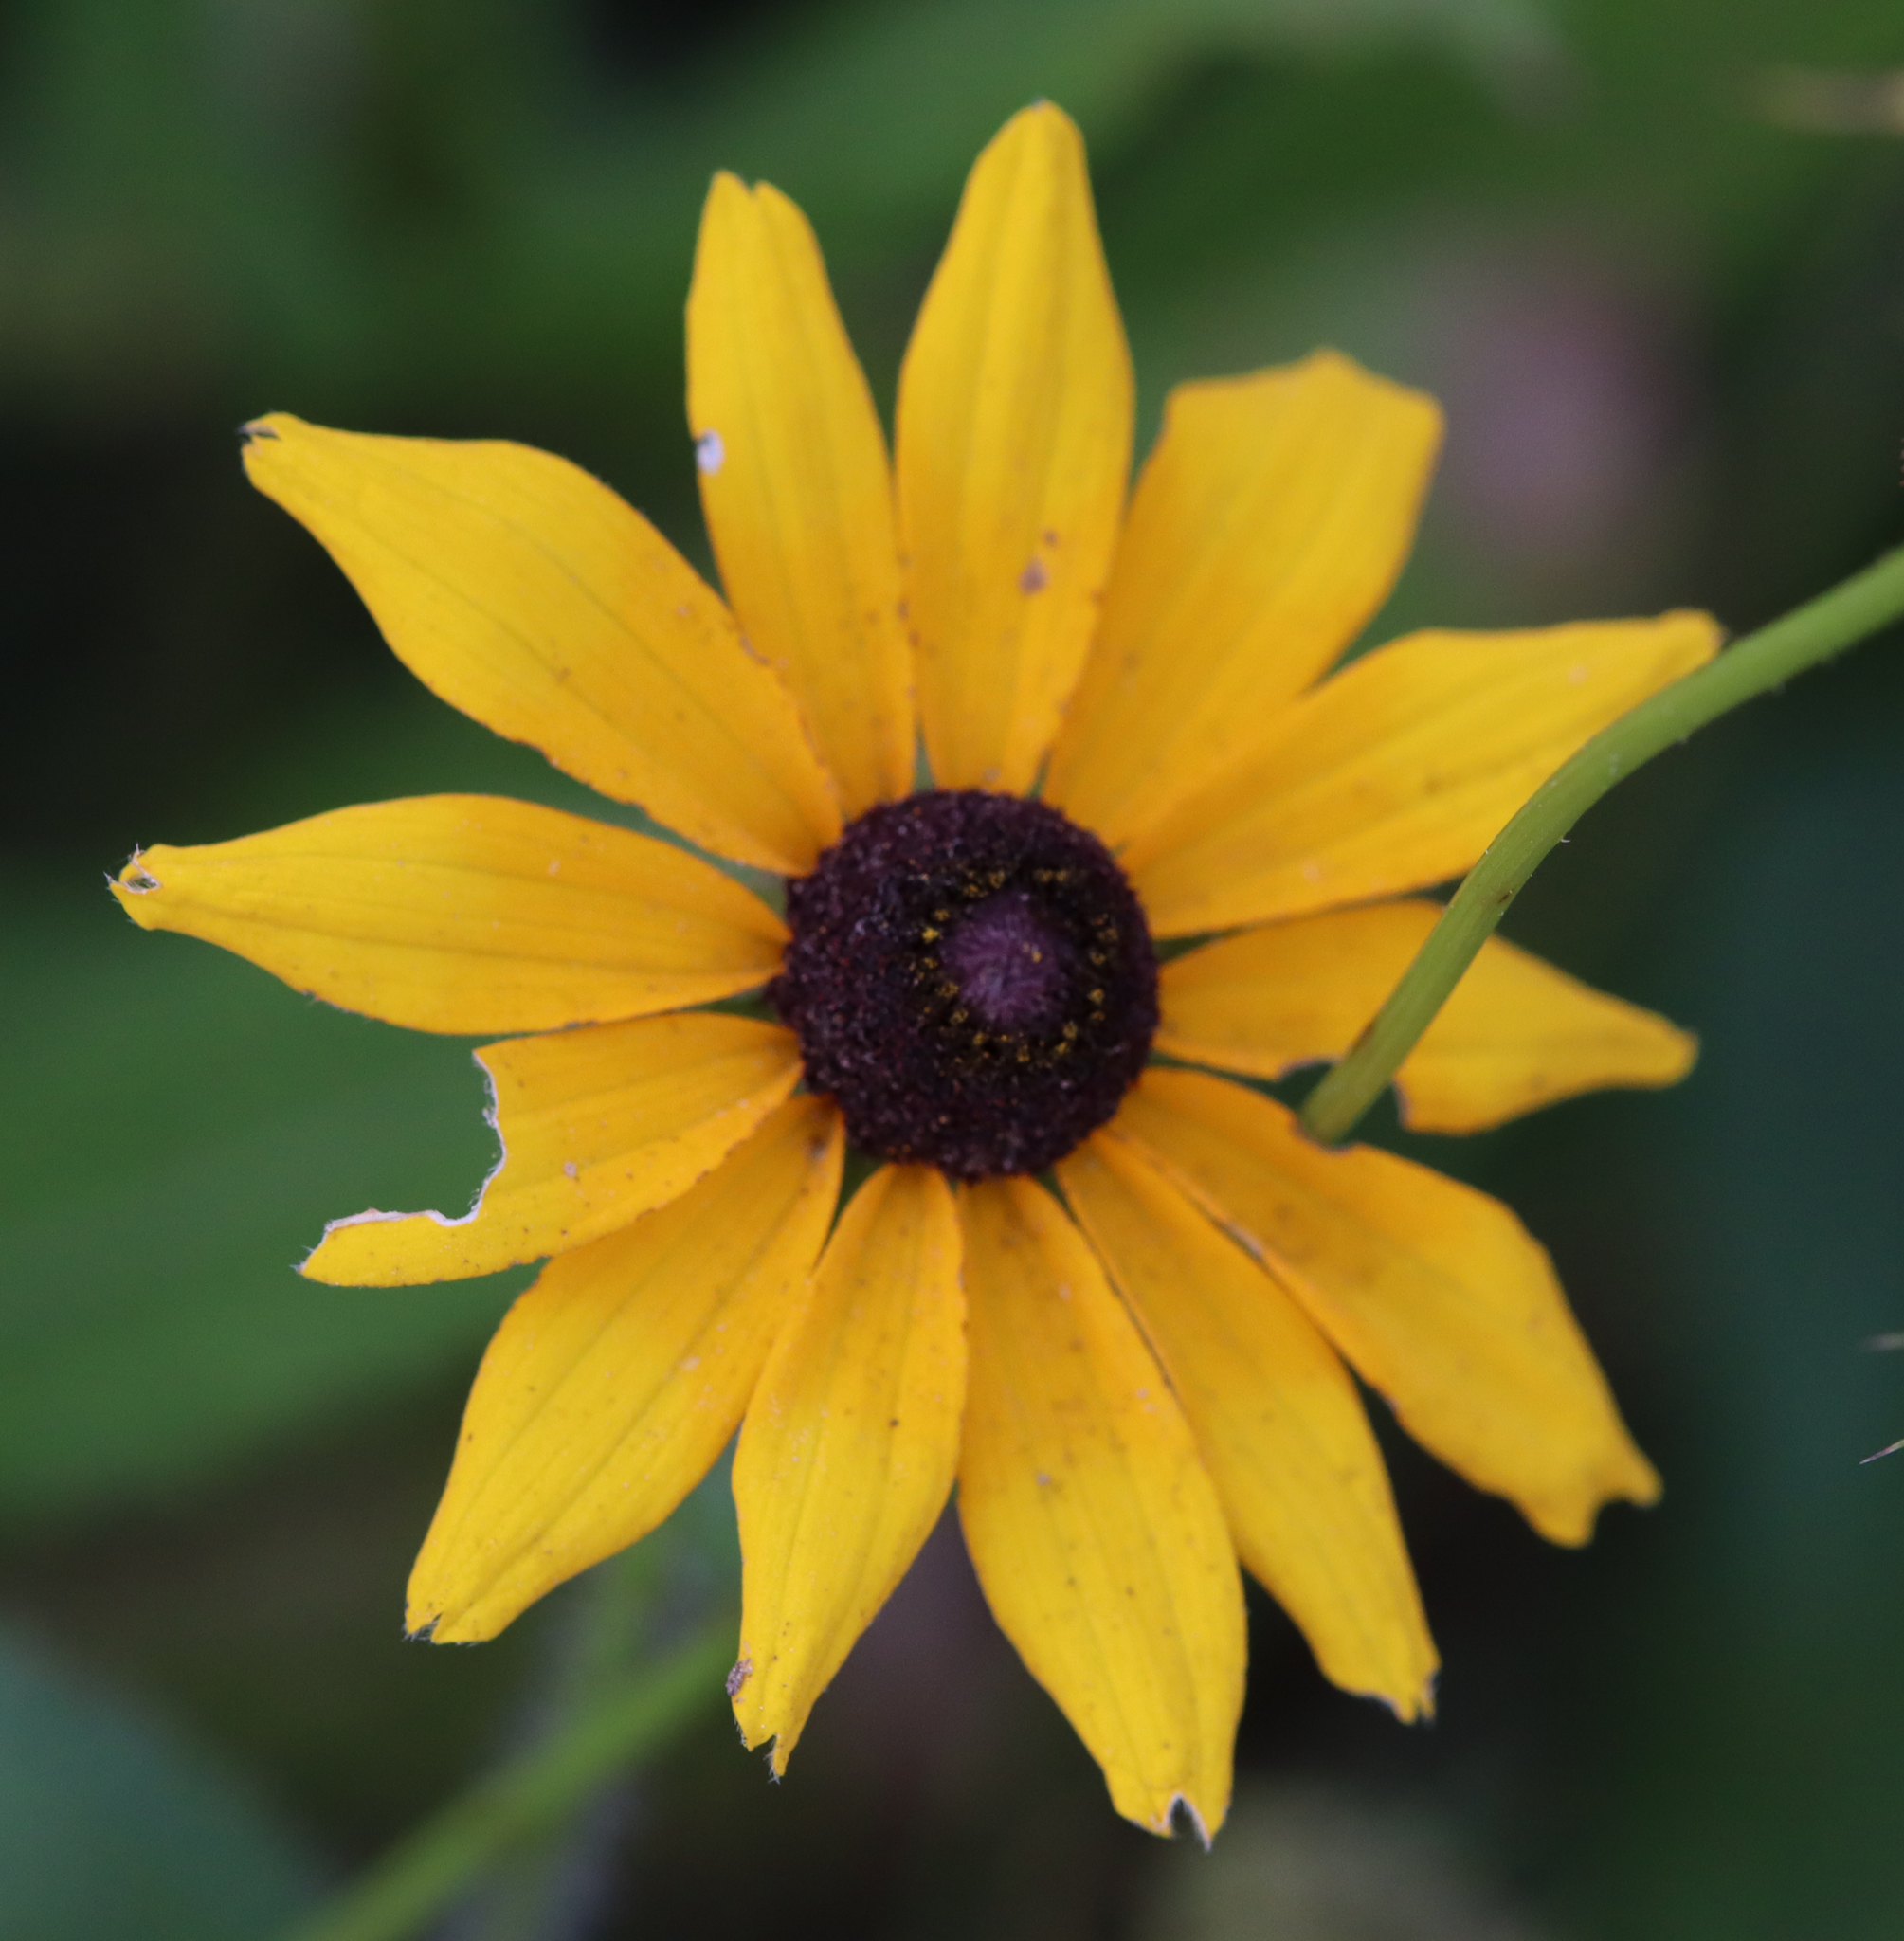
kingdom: Plantae
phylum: Tracheophyta
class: Magnoliopsida
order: Asterales
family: Asteraceae
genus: Rudbeckia
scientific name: Rudbeckia hirta
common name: Black-eyed-susan
